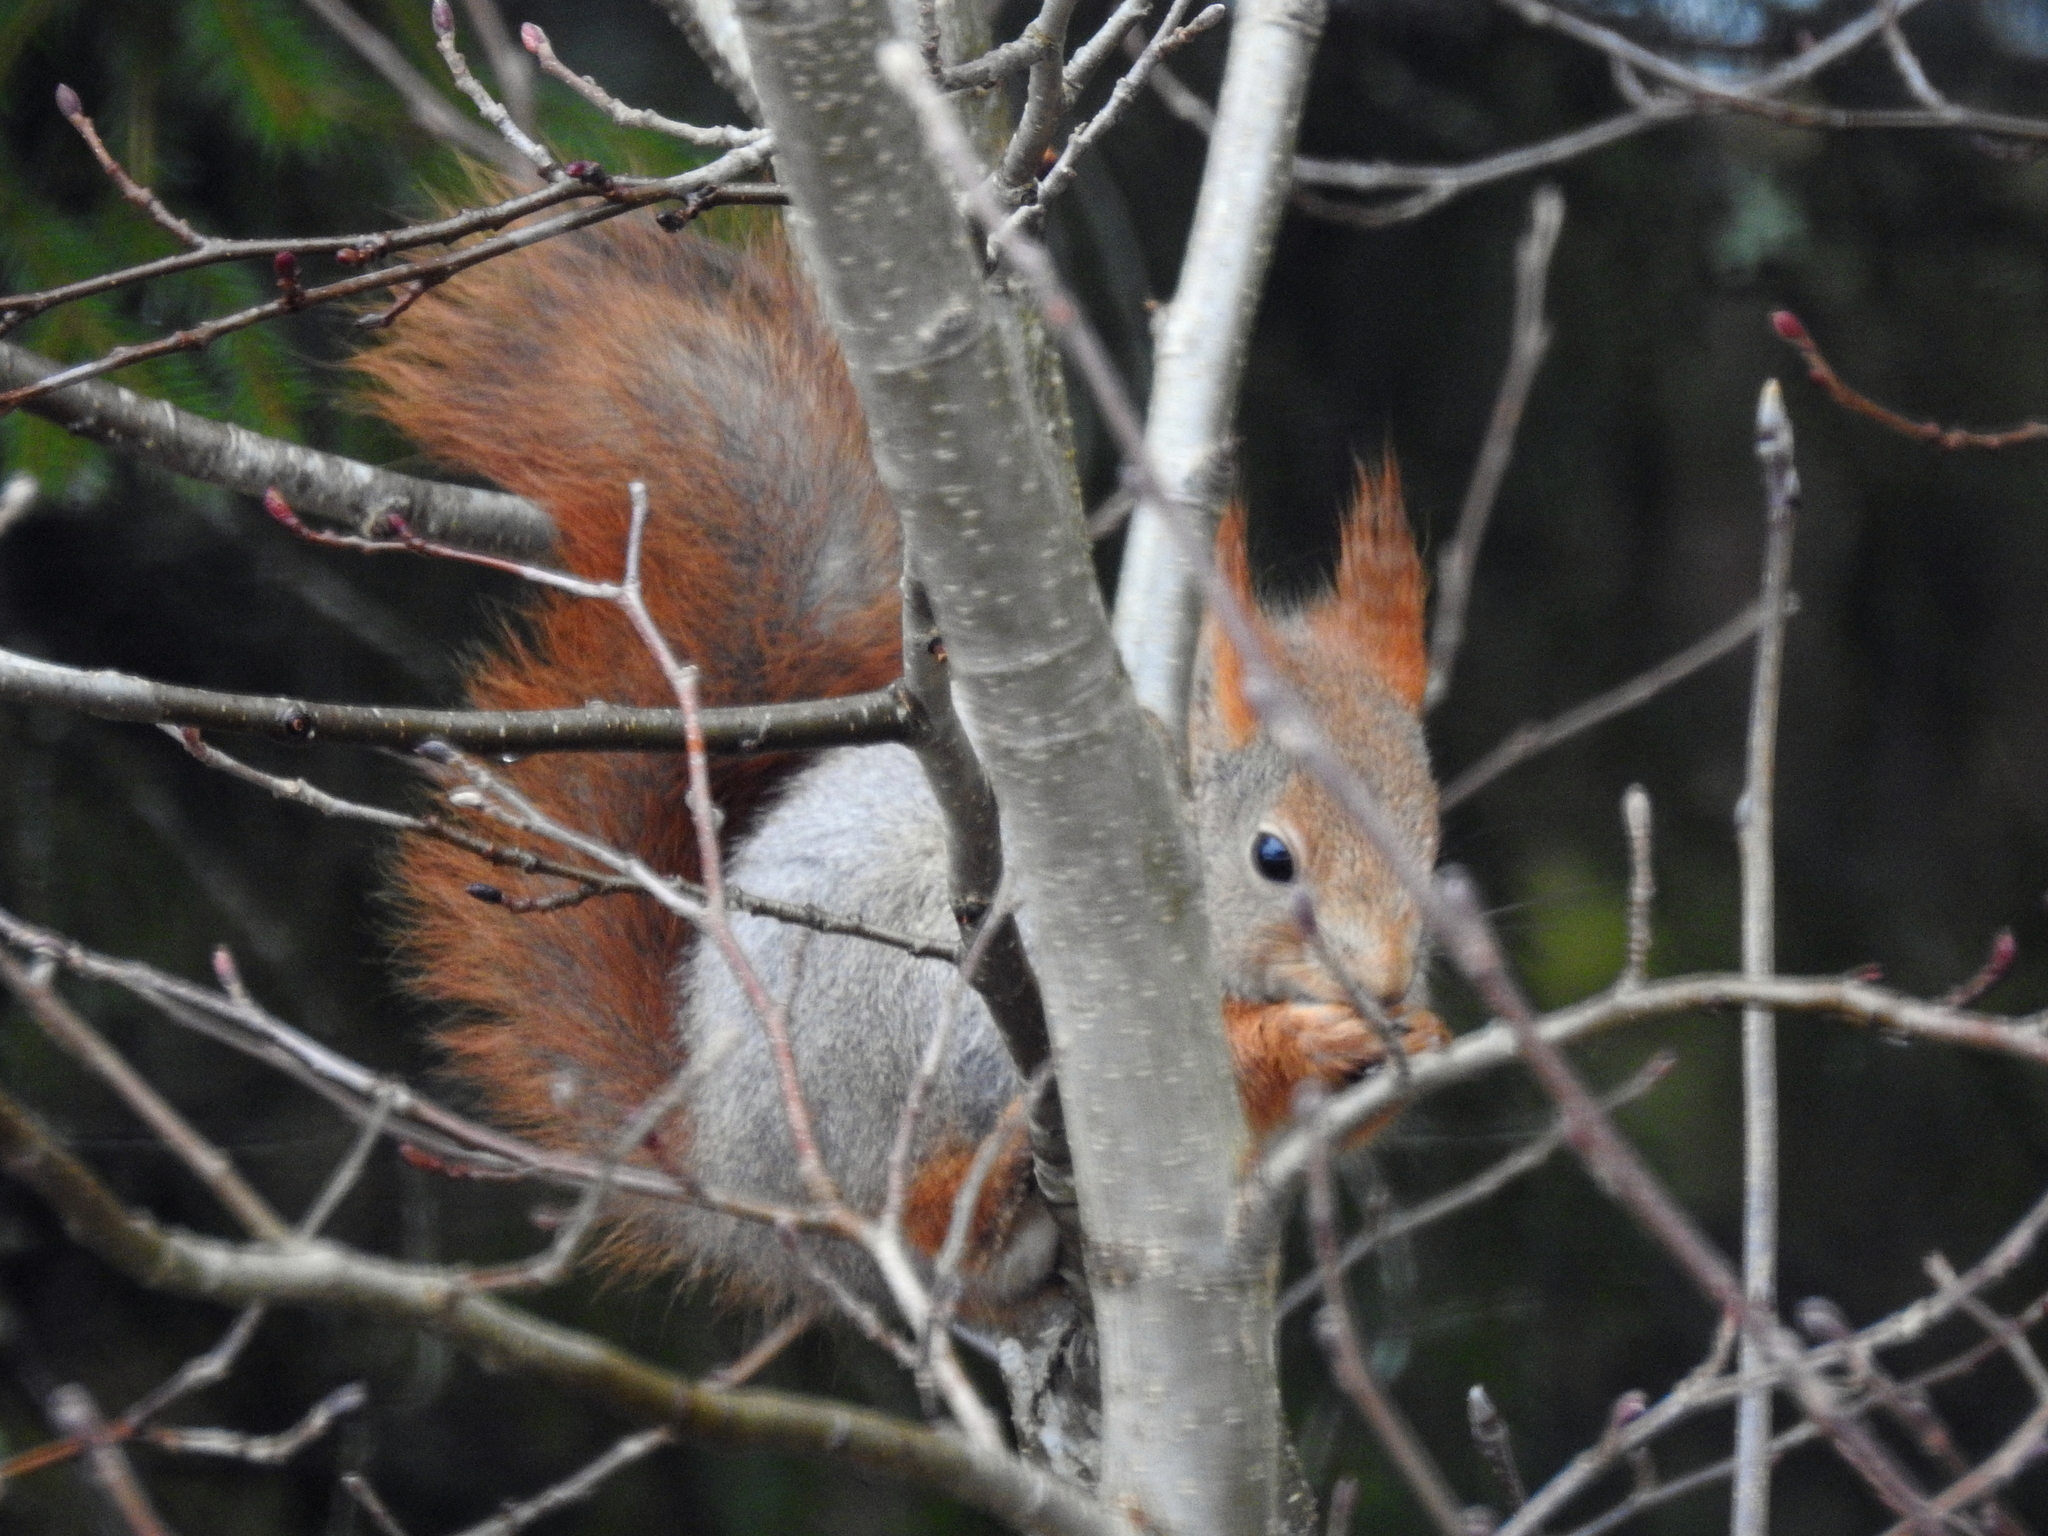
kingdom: Animalia
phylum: Chordata
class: Mammalia
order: Rodentia
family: Sciuridae
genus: Sciurus
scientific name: Sciurus vulgaris
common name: Eurasian red squirrel
